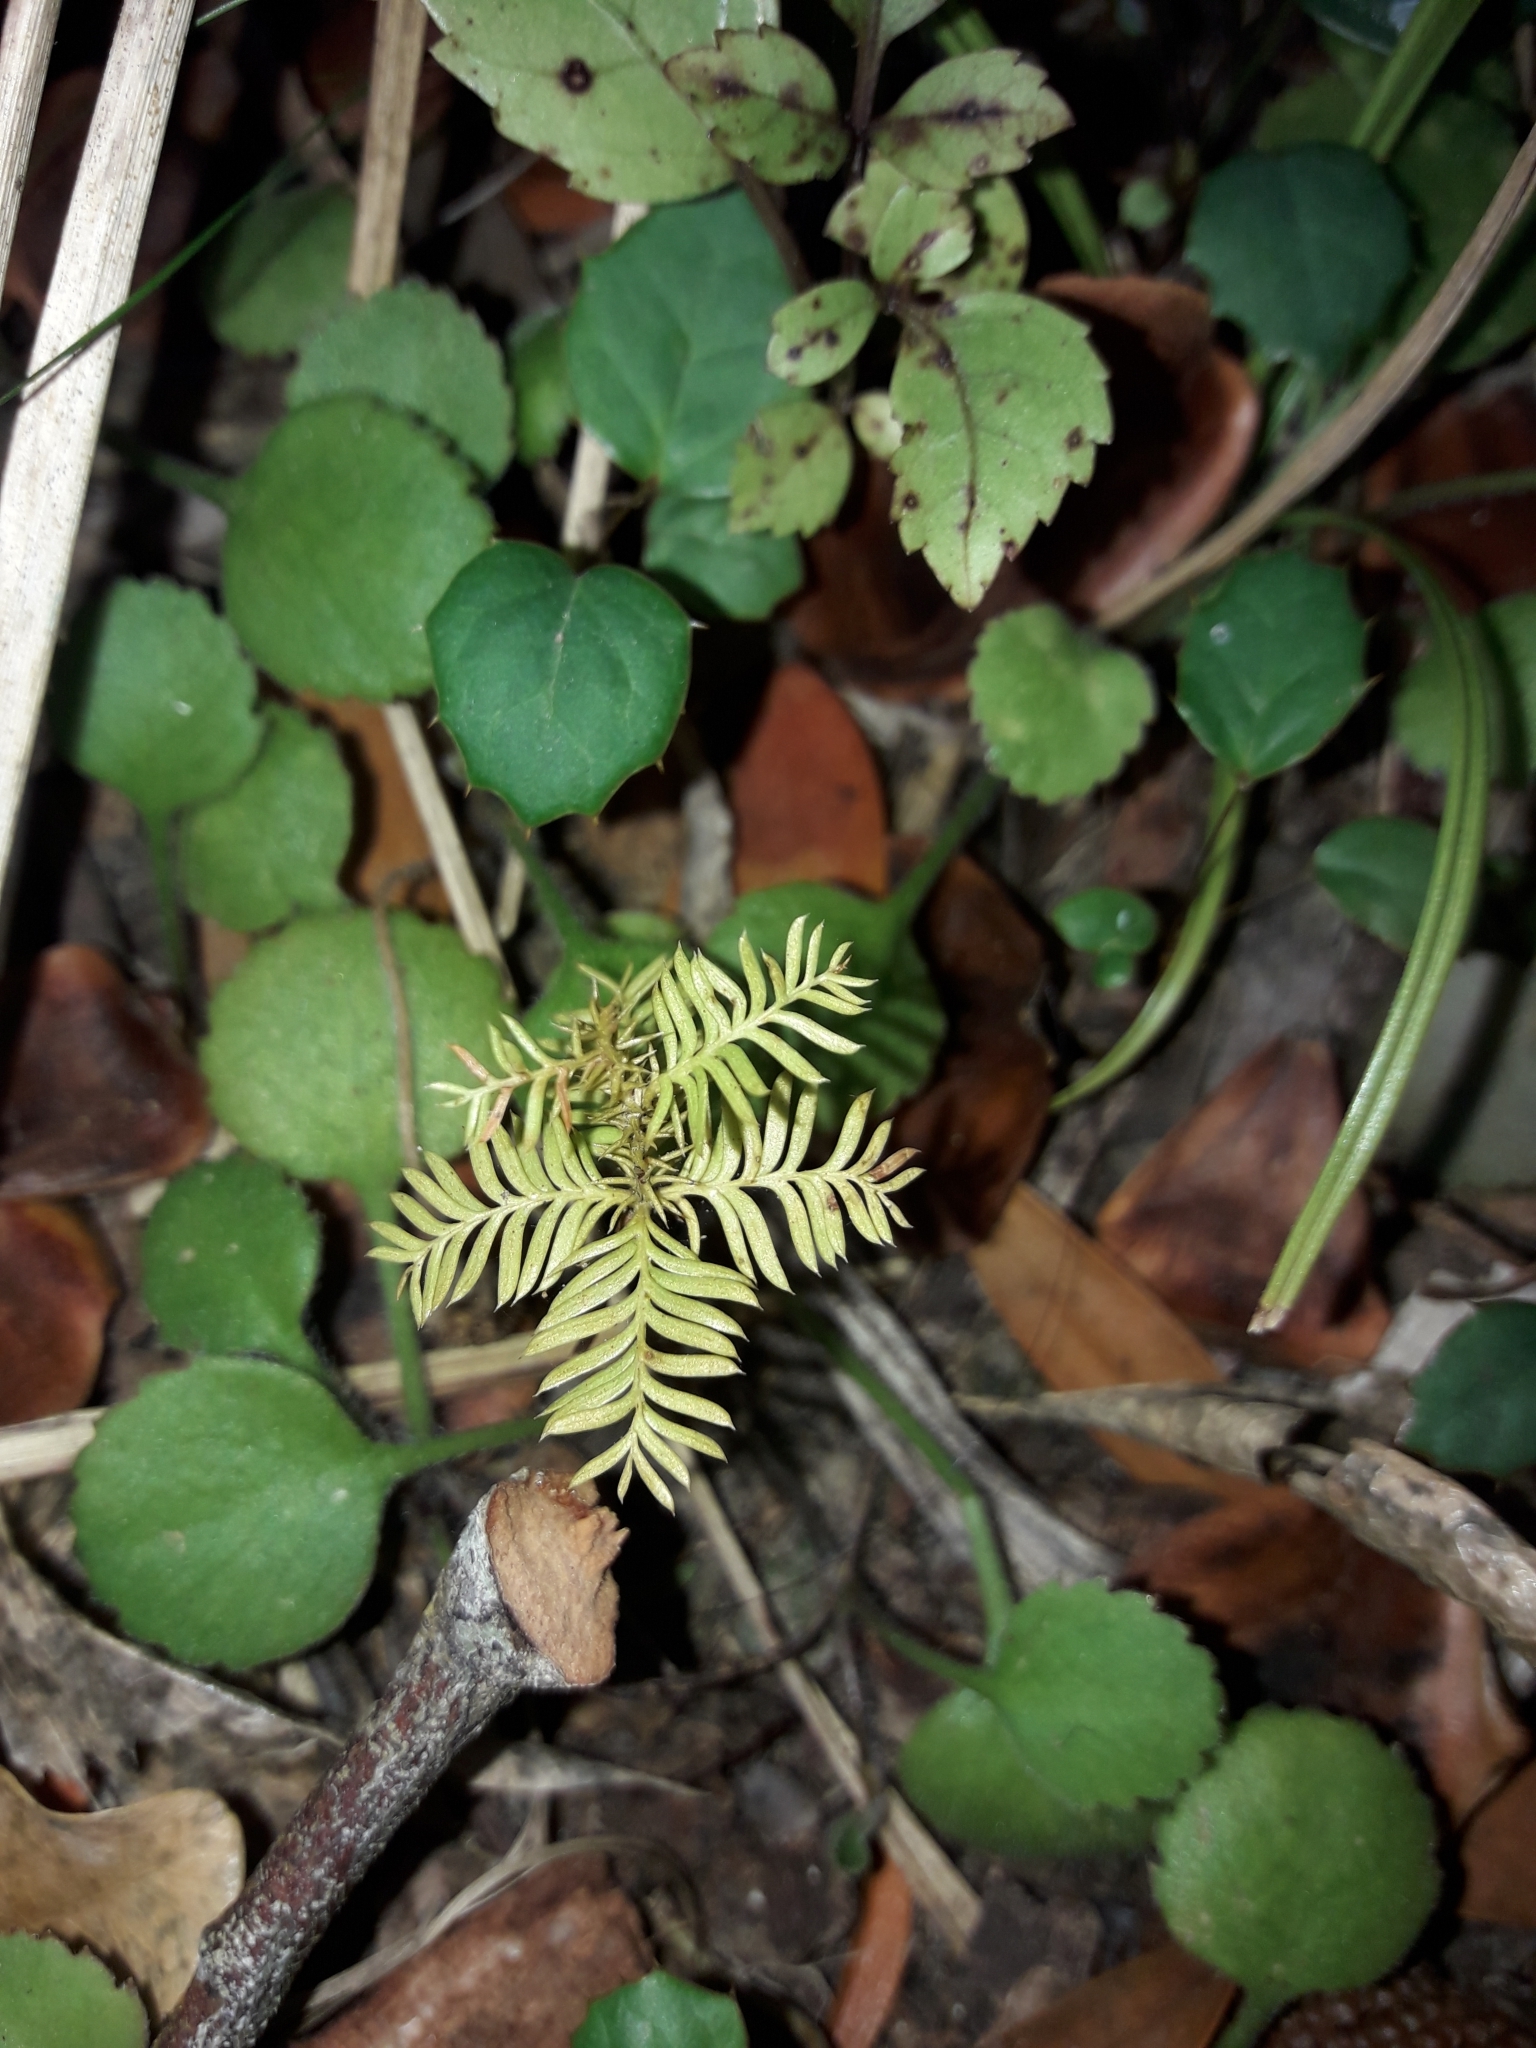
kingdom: Plantae
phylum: Tracheophyta
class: Pinopsida
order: Pinales
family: Podocarpaceae
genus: Dacrycarpus
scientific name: Dacrycarpus dacrydioides
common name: White pine
